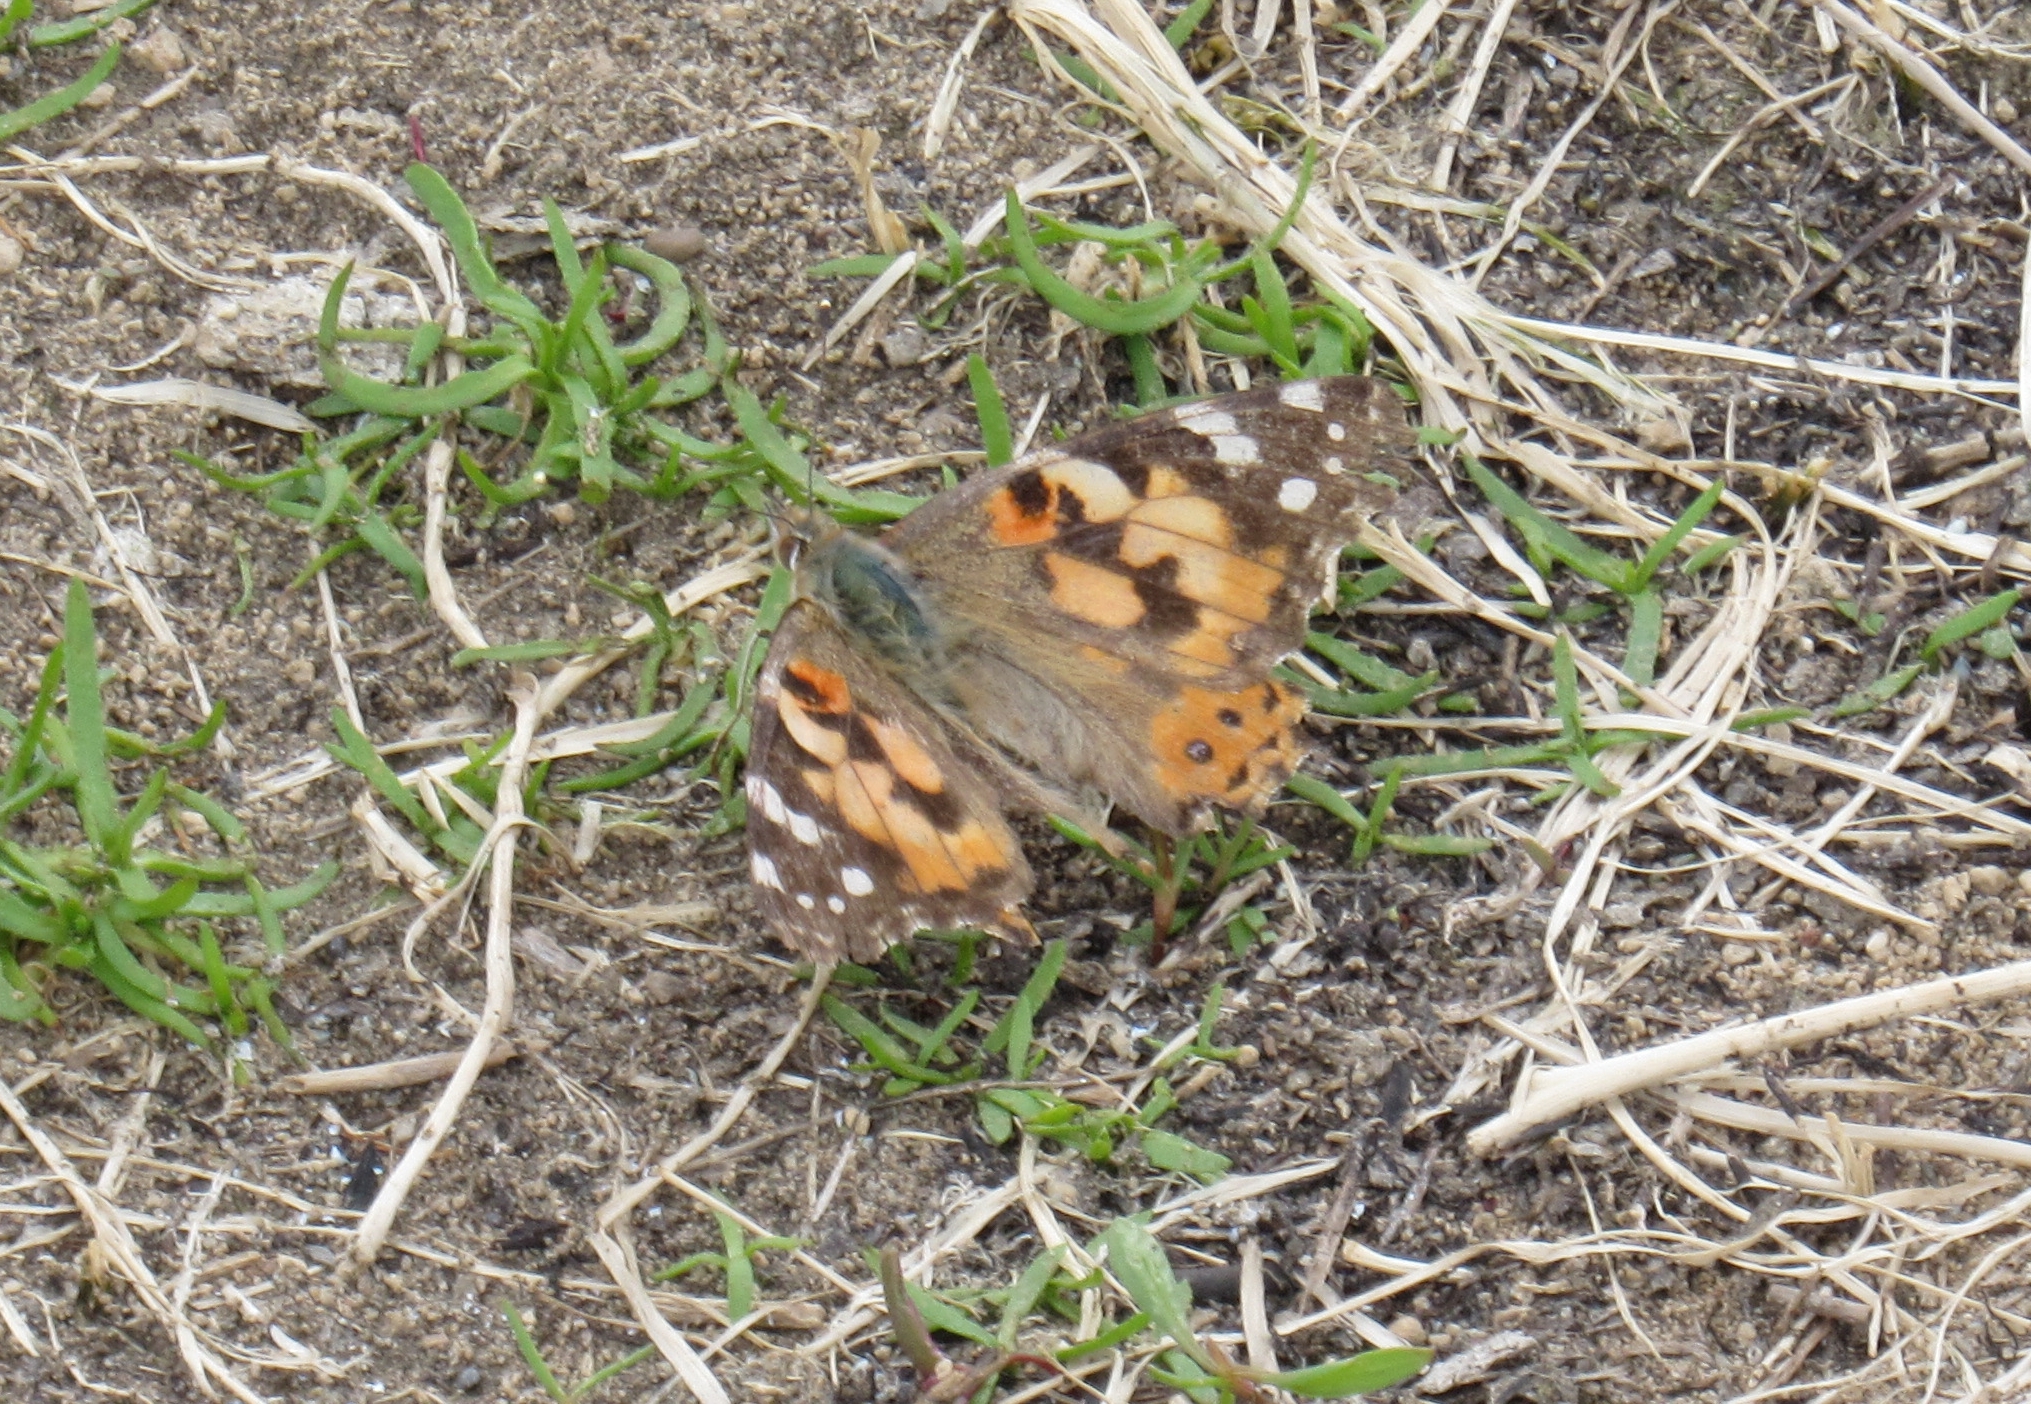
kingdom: Animalia
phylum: Arthropoda
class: Insecta
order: Lepidoptera
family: Nymphalidae
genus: Vanessa
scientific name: Vanessa cardui
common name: Painted lady
